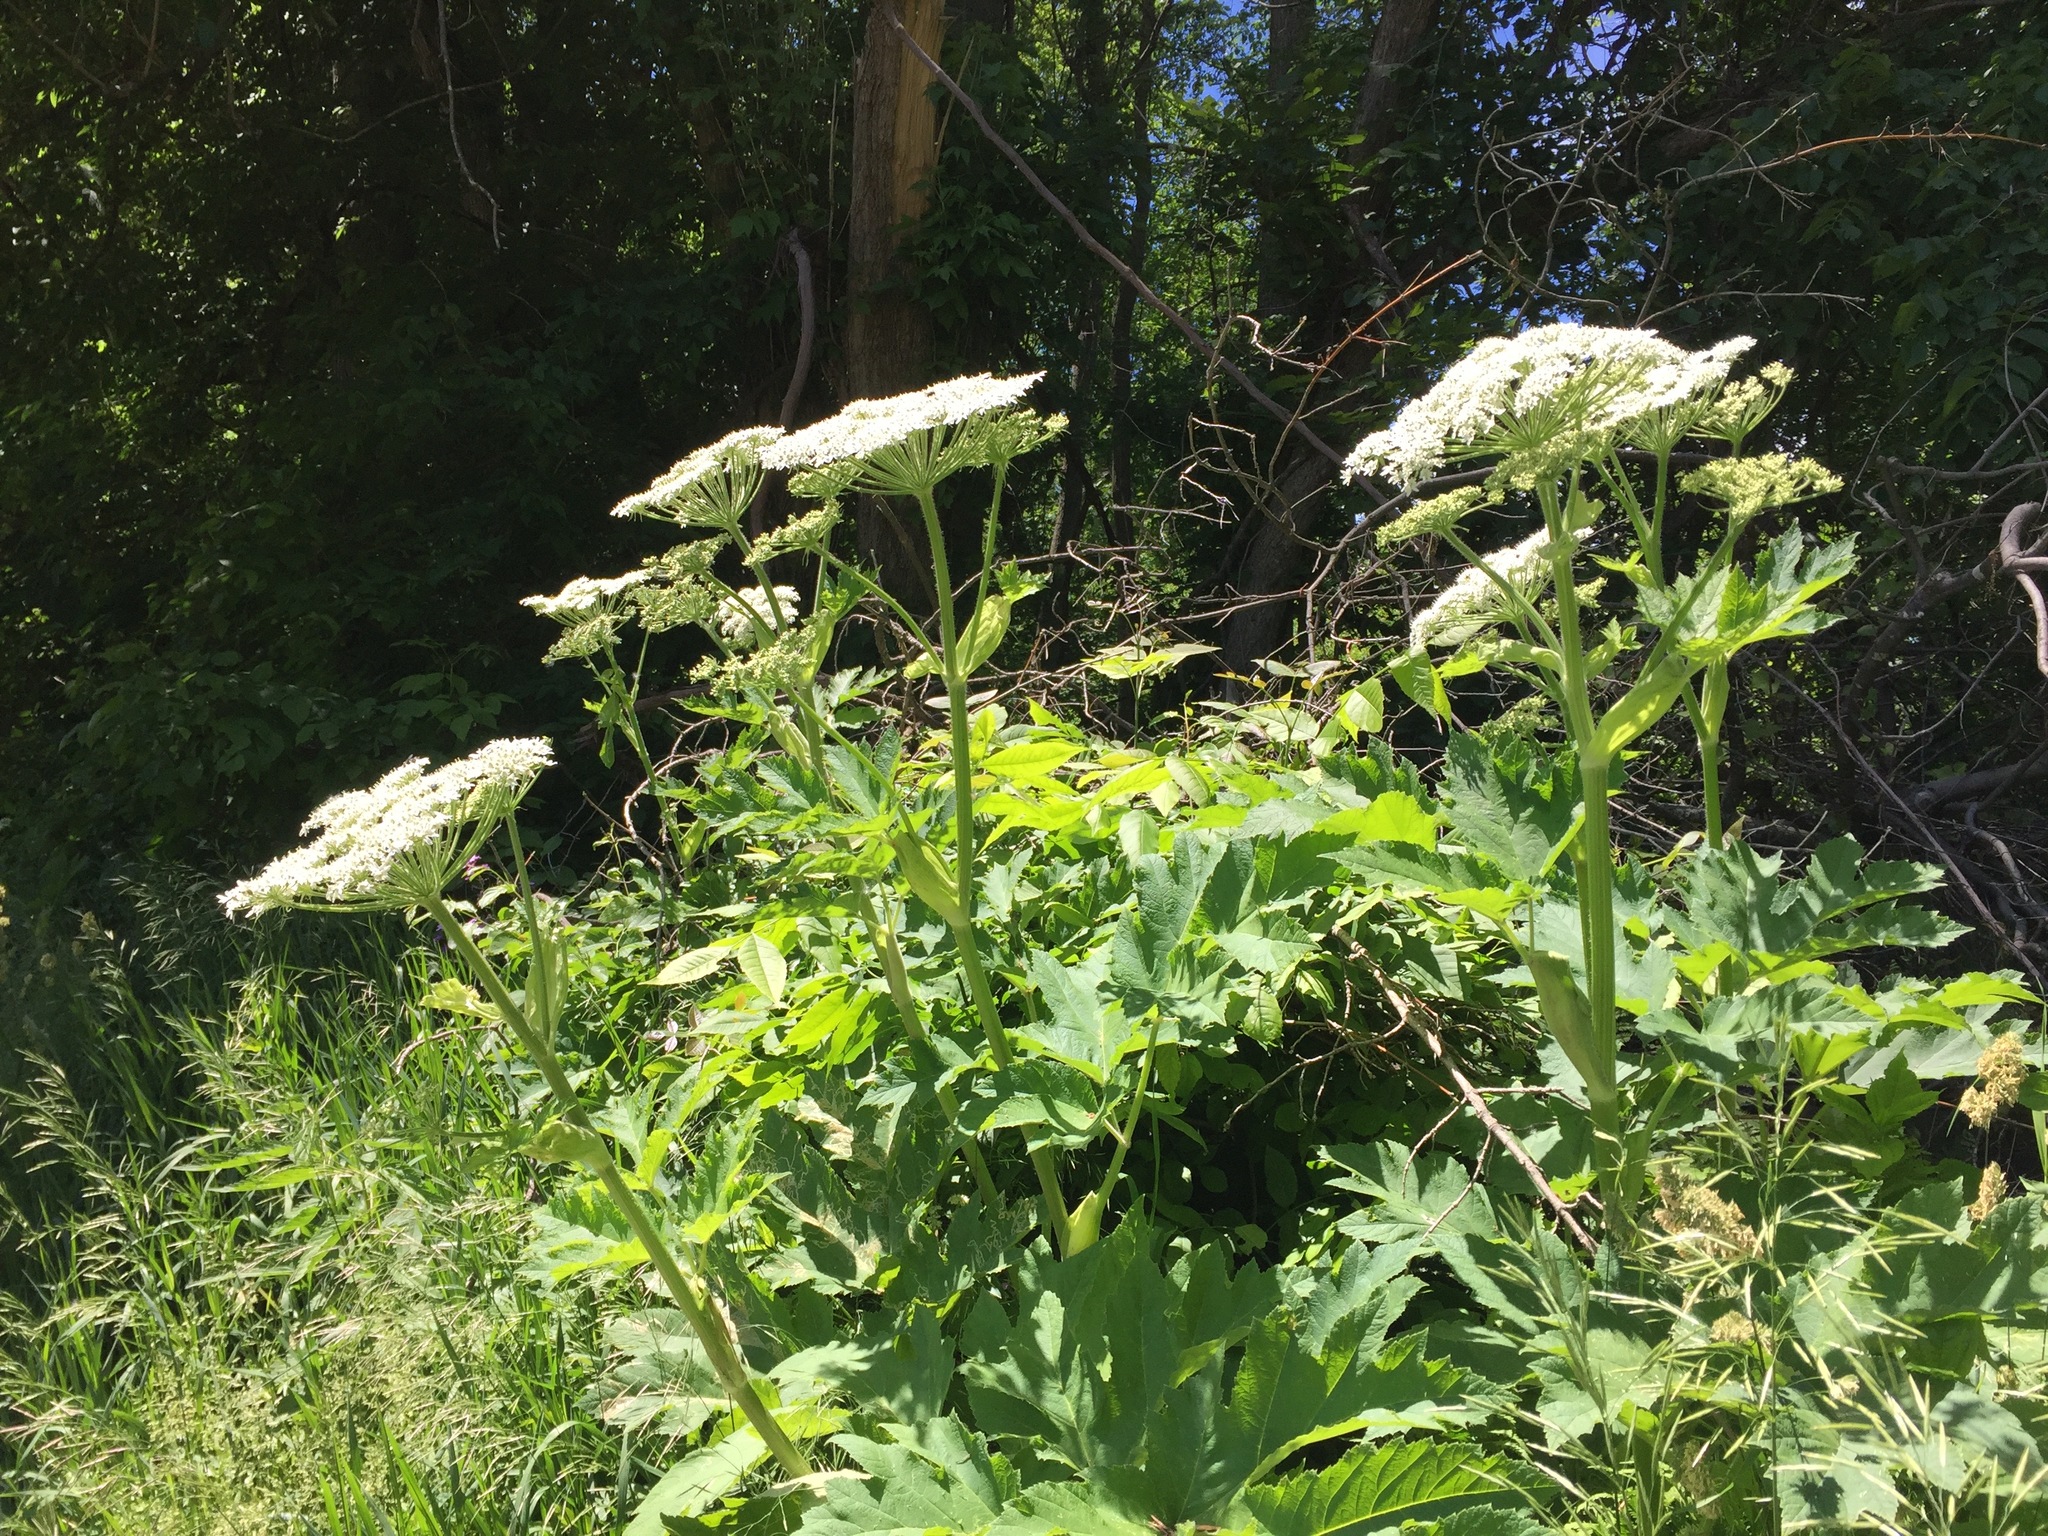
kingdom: Plantae
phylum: Tracheophyta
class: Magnoliopsida
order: Apiales
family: Apiaceae
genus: Heracleum
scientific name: Heracleum maximum
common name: American cow parsnip
